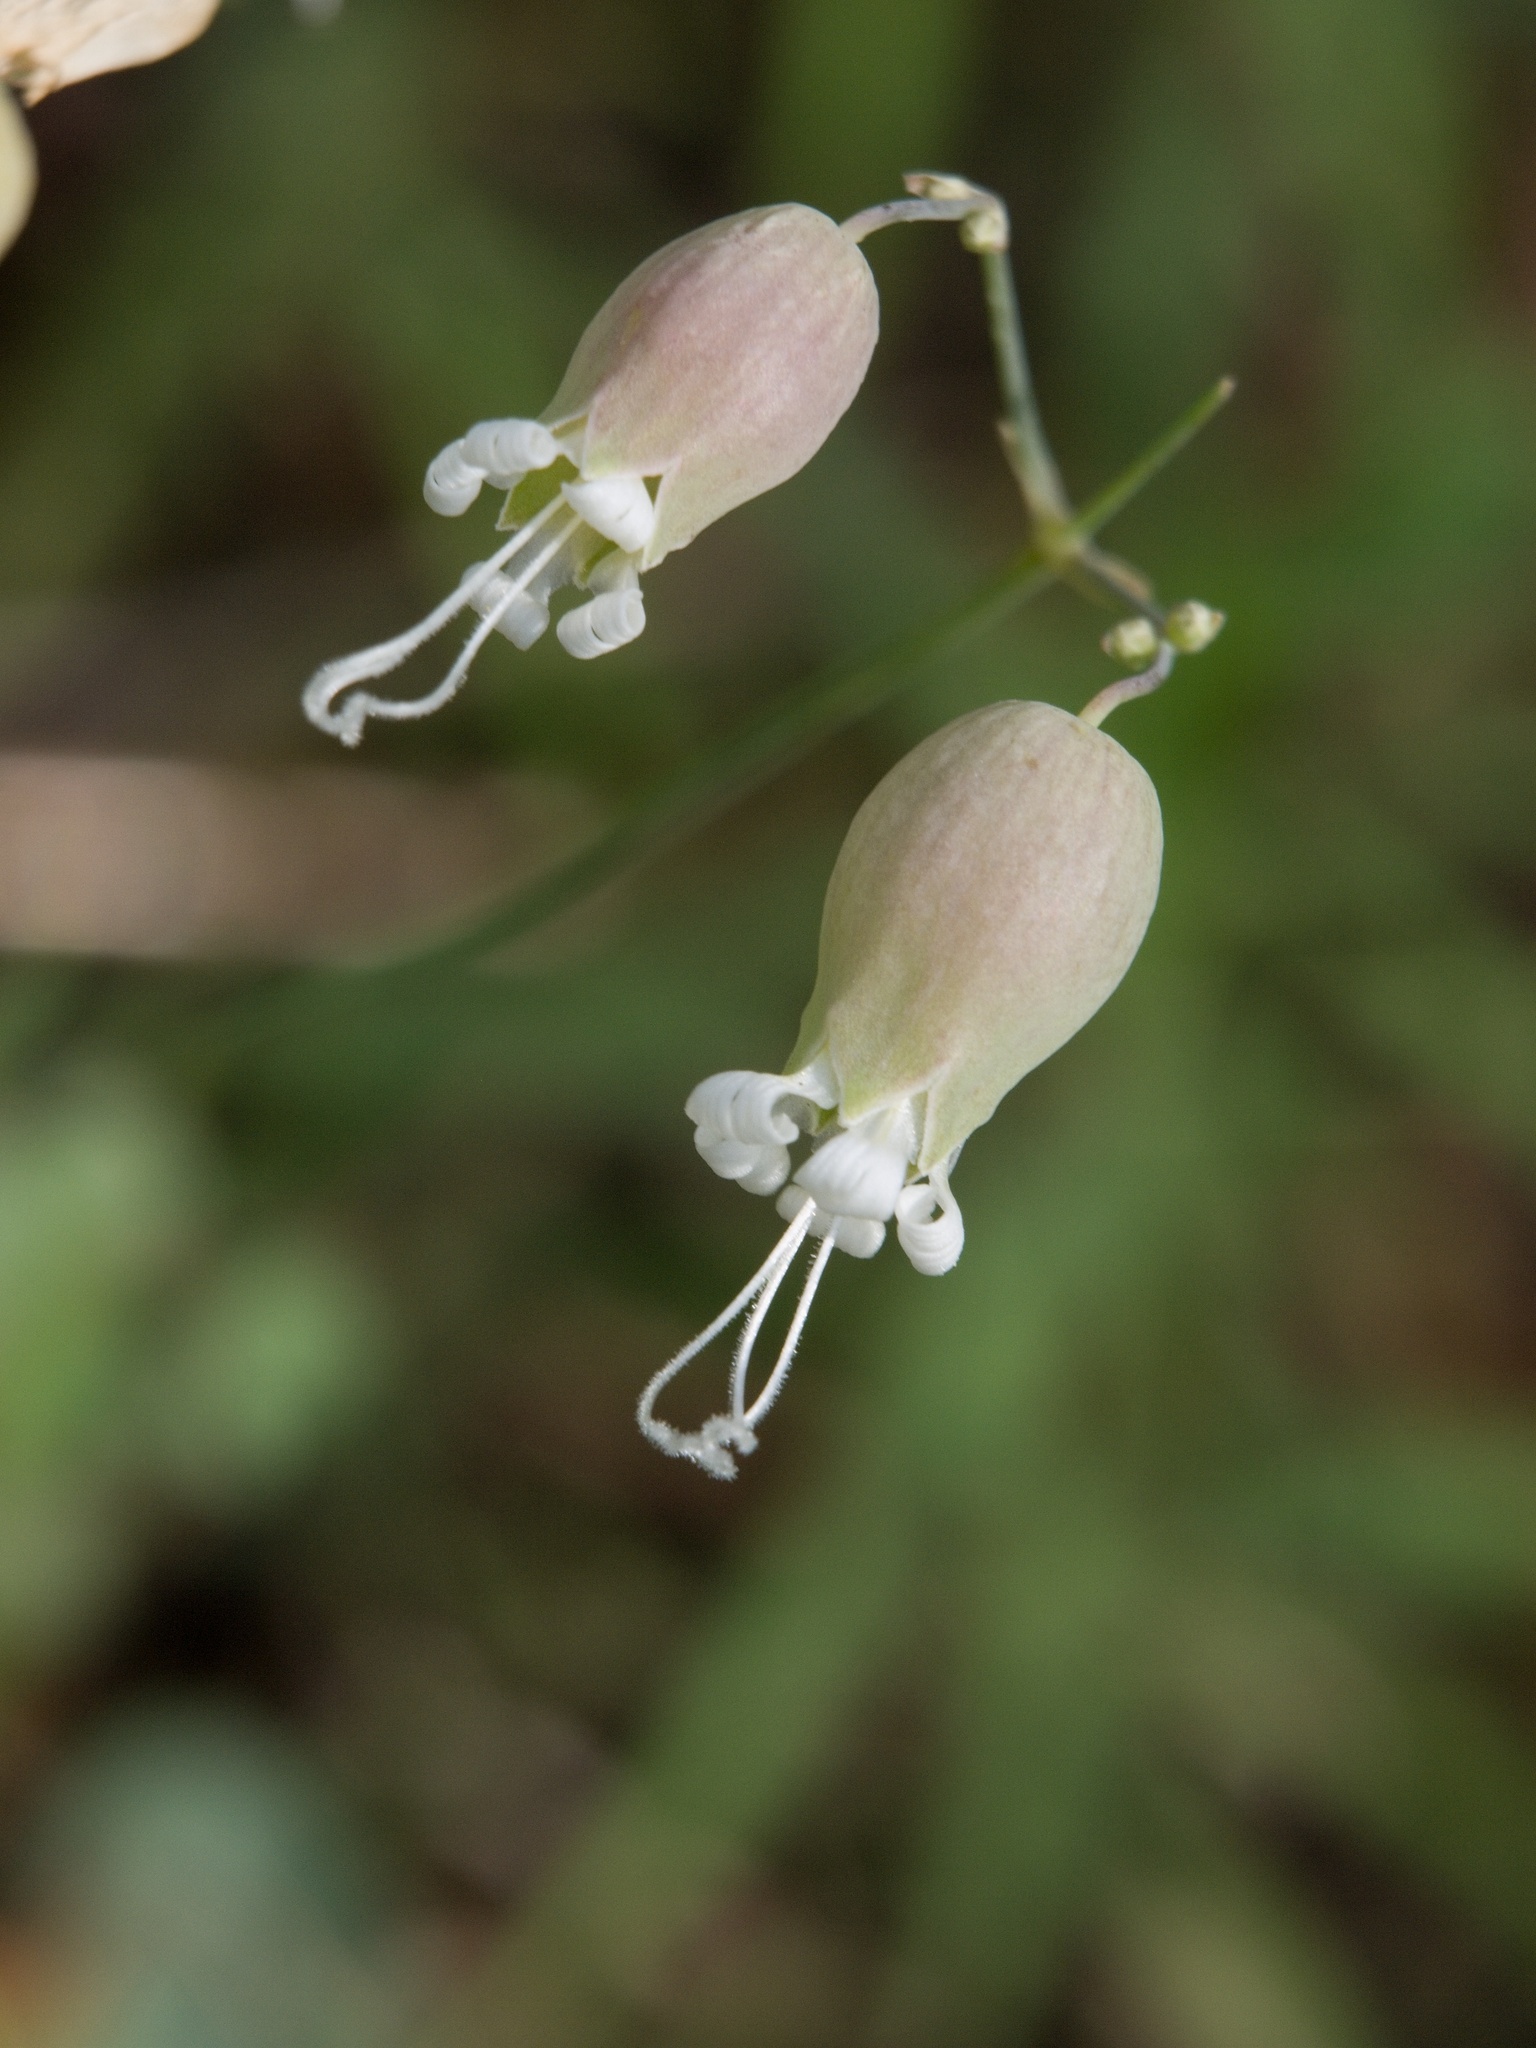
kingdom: Plantae
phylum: Tracheophyta
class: Magnoliopsida
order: Caryophyllales
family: Caryophyllaceae
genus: Silene
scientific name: Silene vulgaris
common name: Bladder campion
